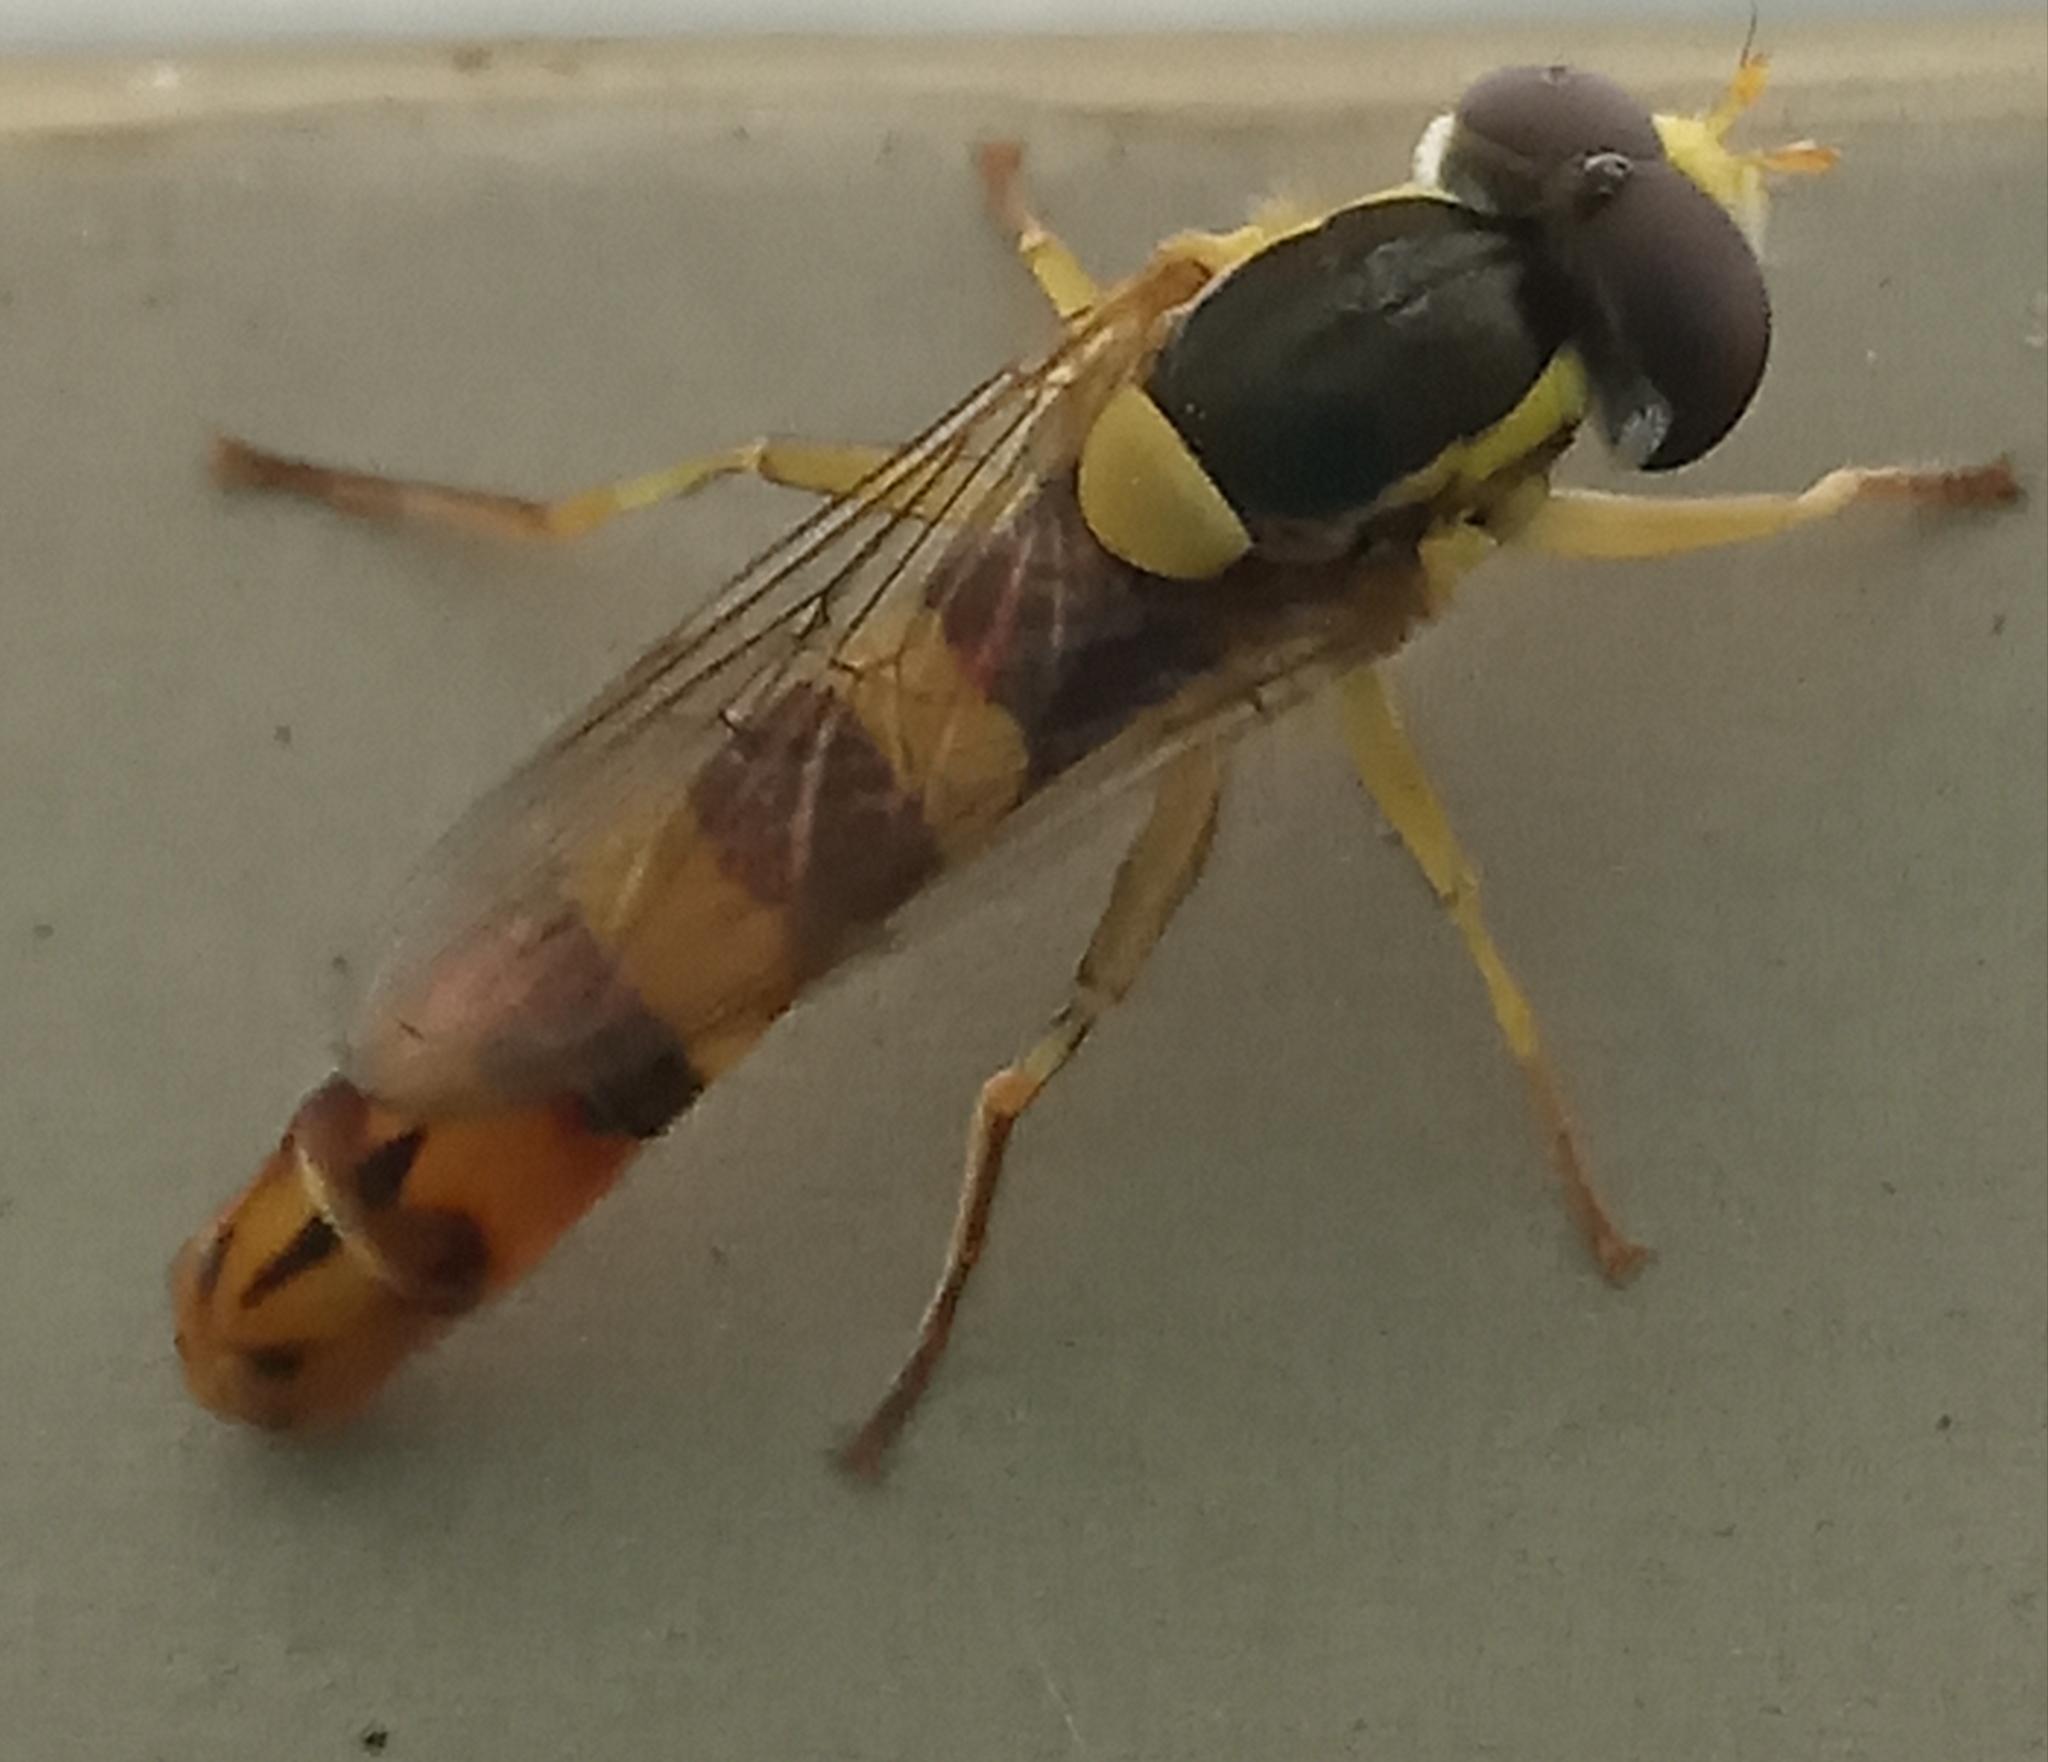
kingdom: Animalia
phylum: Arthropoda
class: Insecta
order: Diptera
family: Syrphidae
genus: Sphaerophoria
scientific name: Sphaerophoria scripta
